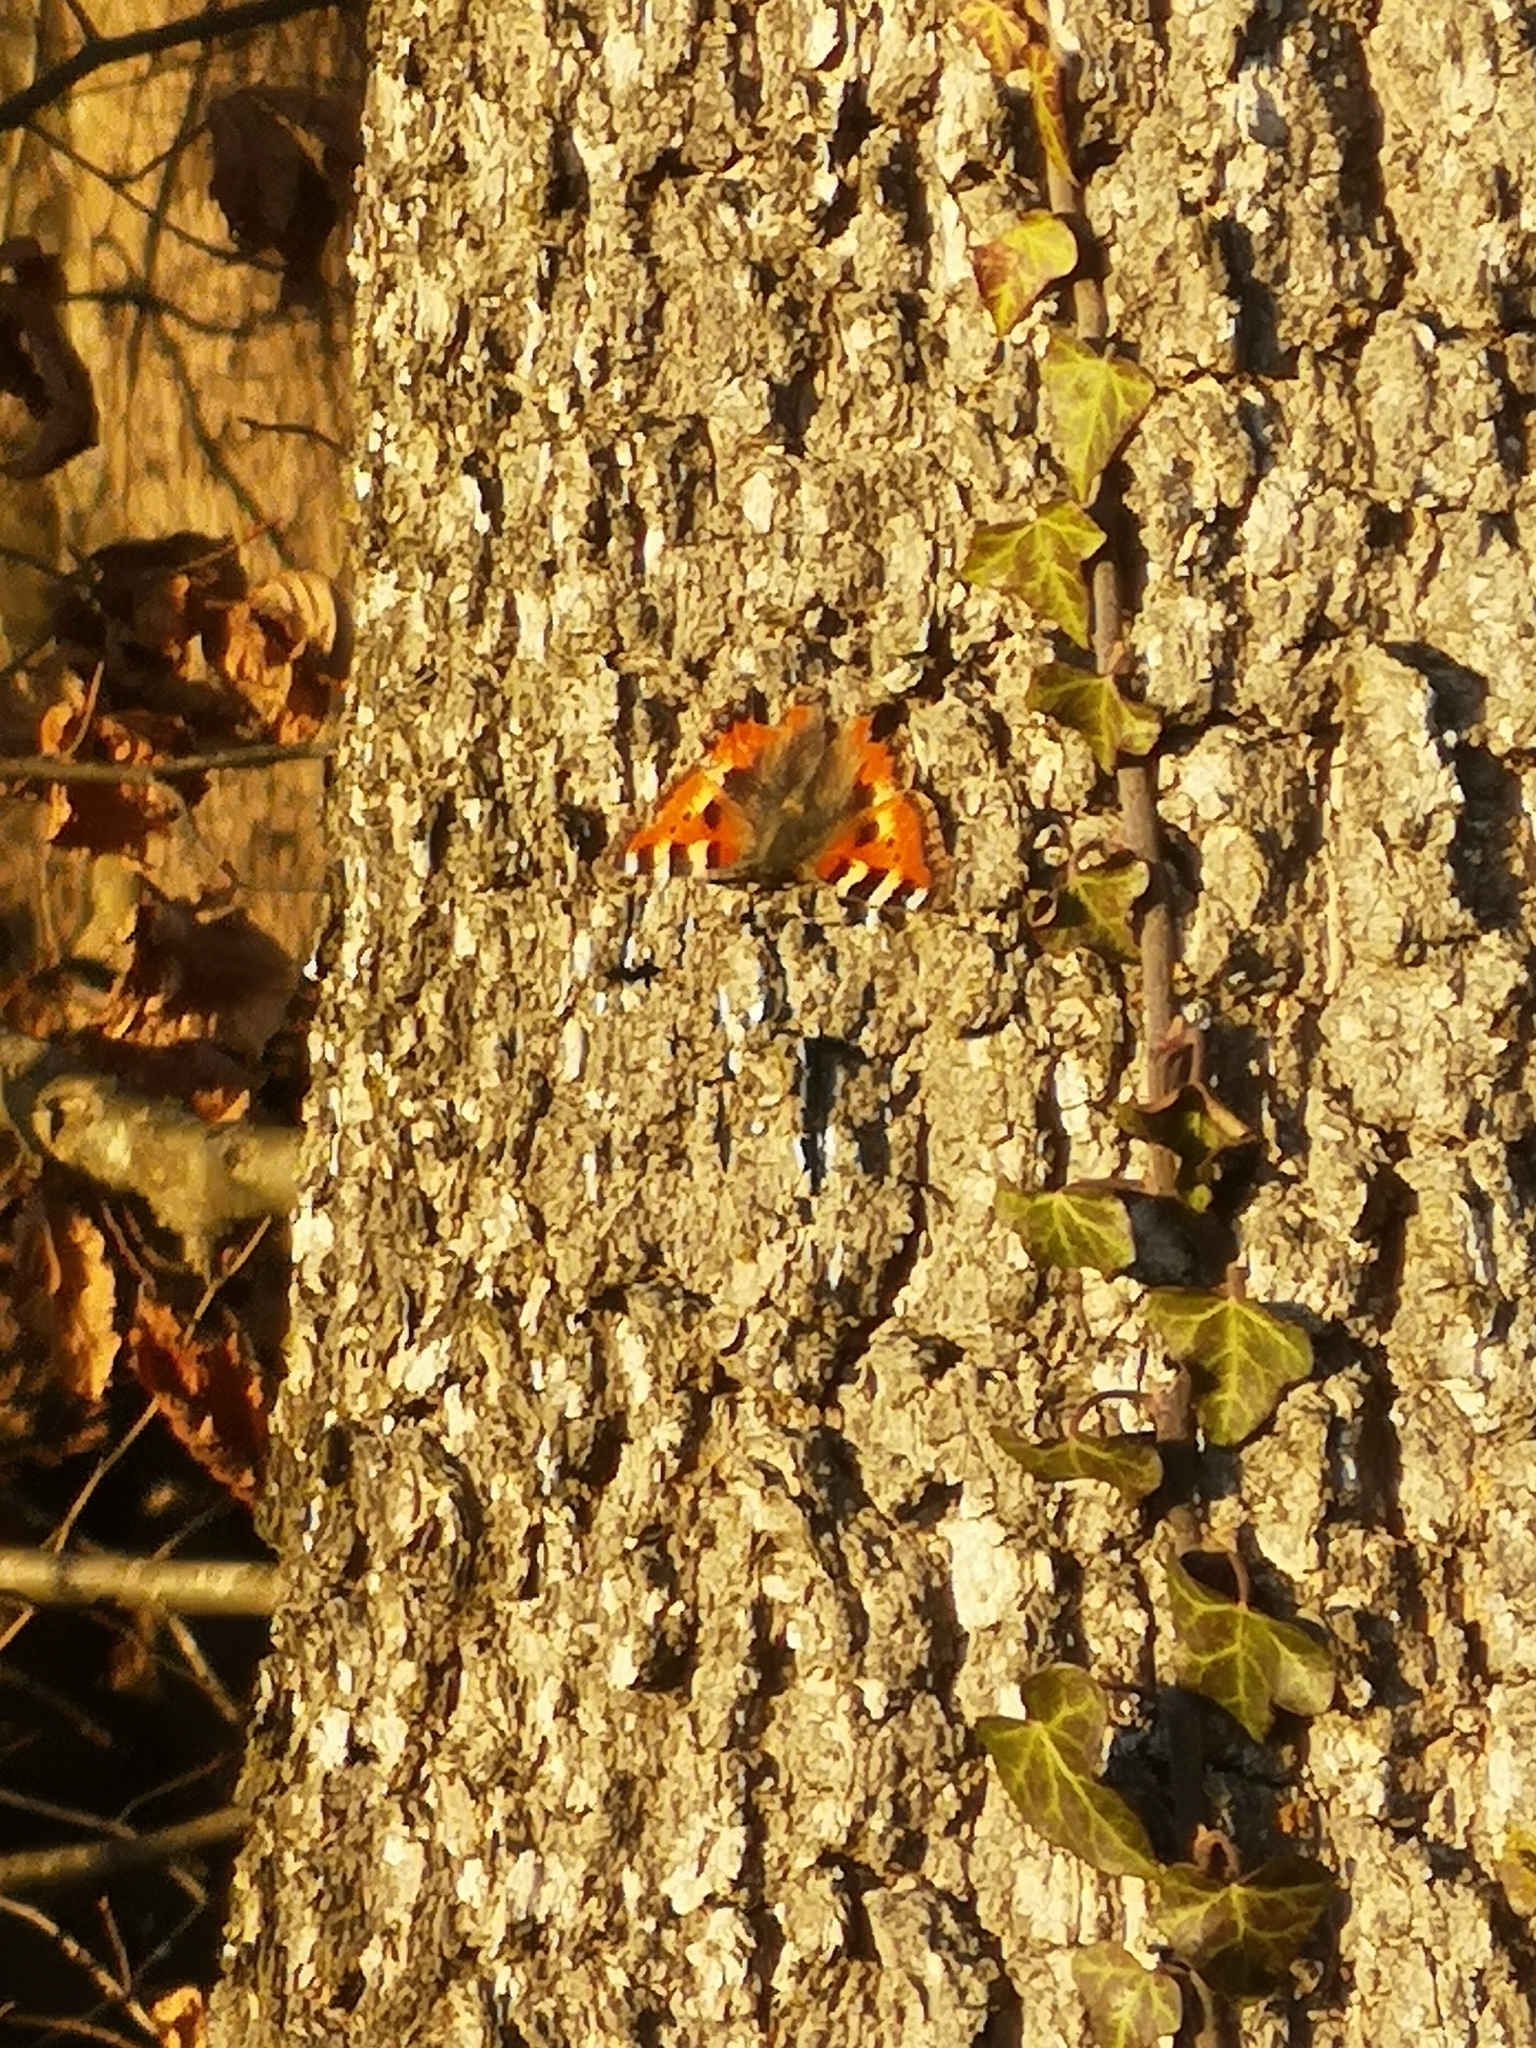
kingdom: Animalia
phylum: Arthropoda
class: Insecta
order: Lepidoptera
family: Nymphalidae
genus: Aglais
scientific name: Aglais urticae
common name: Small tortoiseshell
